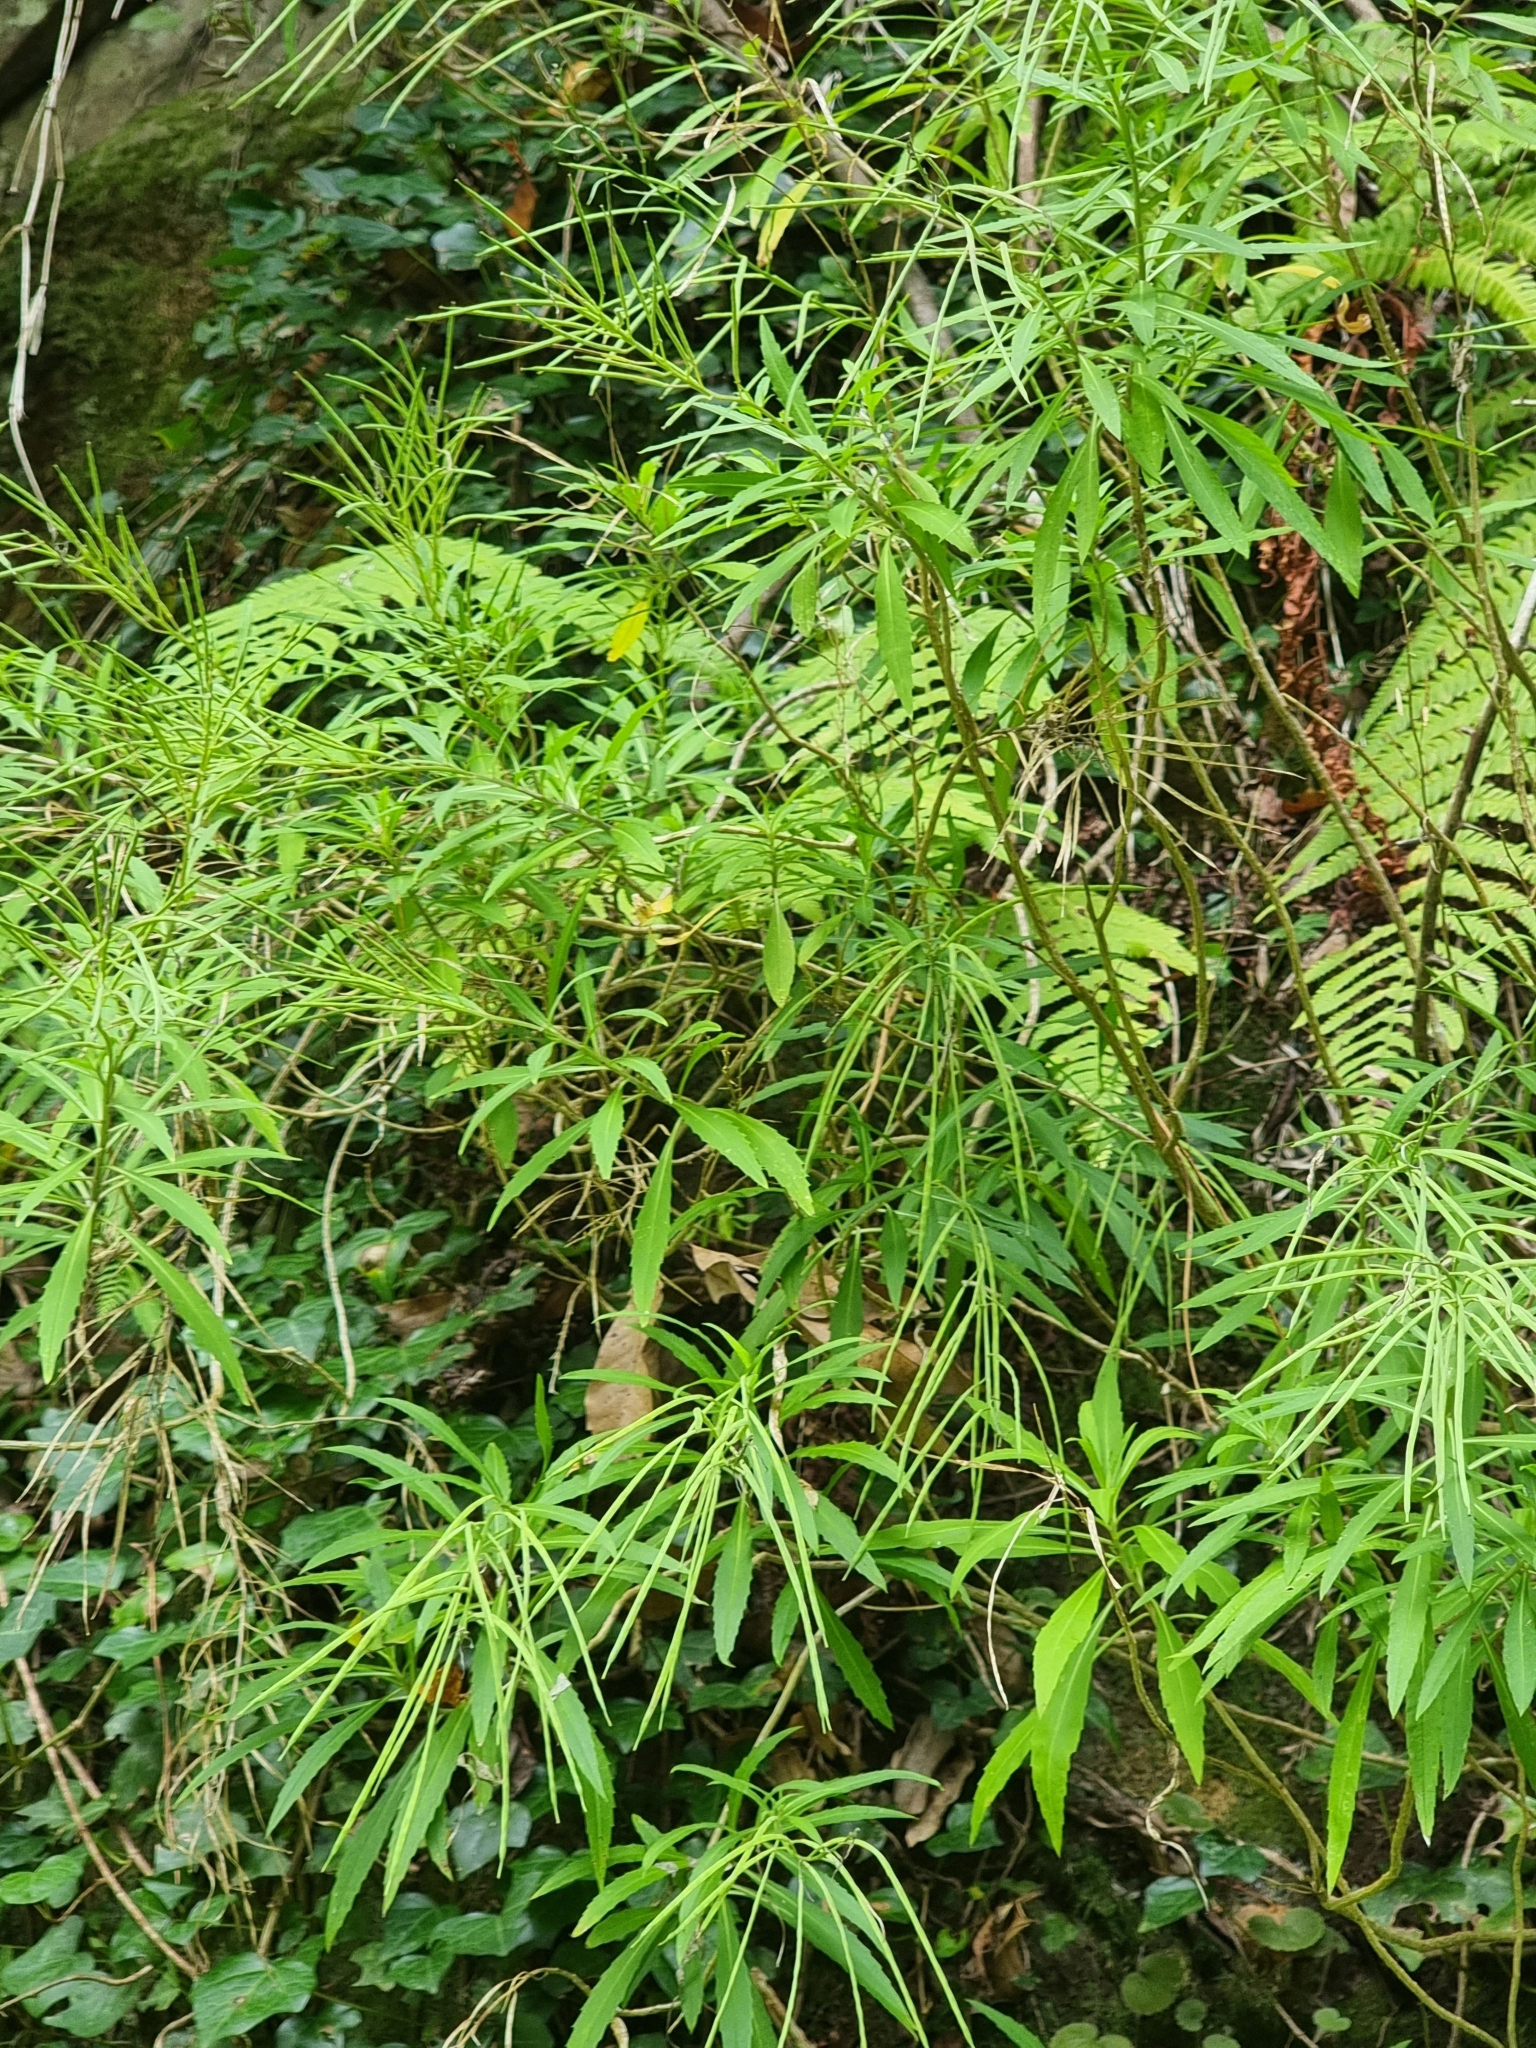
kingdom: Plantae
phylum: Tracheophyta
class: Magnoliopsida
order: Brassicales
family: Brassicaceae
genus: Erysimum
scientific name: Erysimum bicolor
